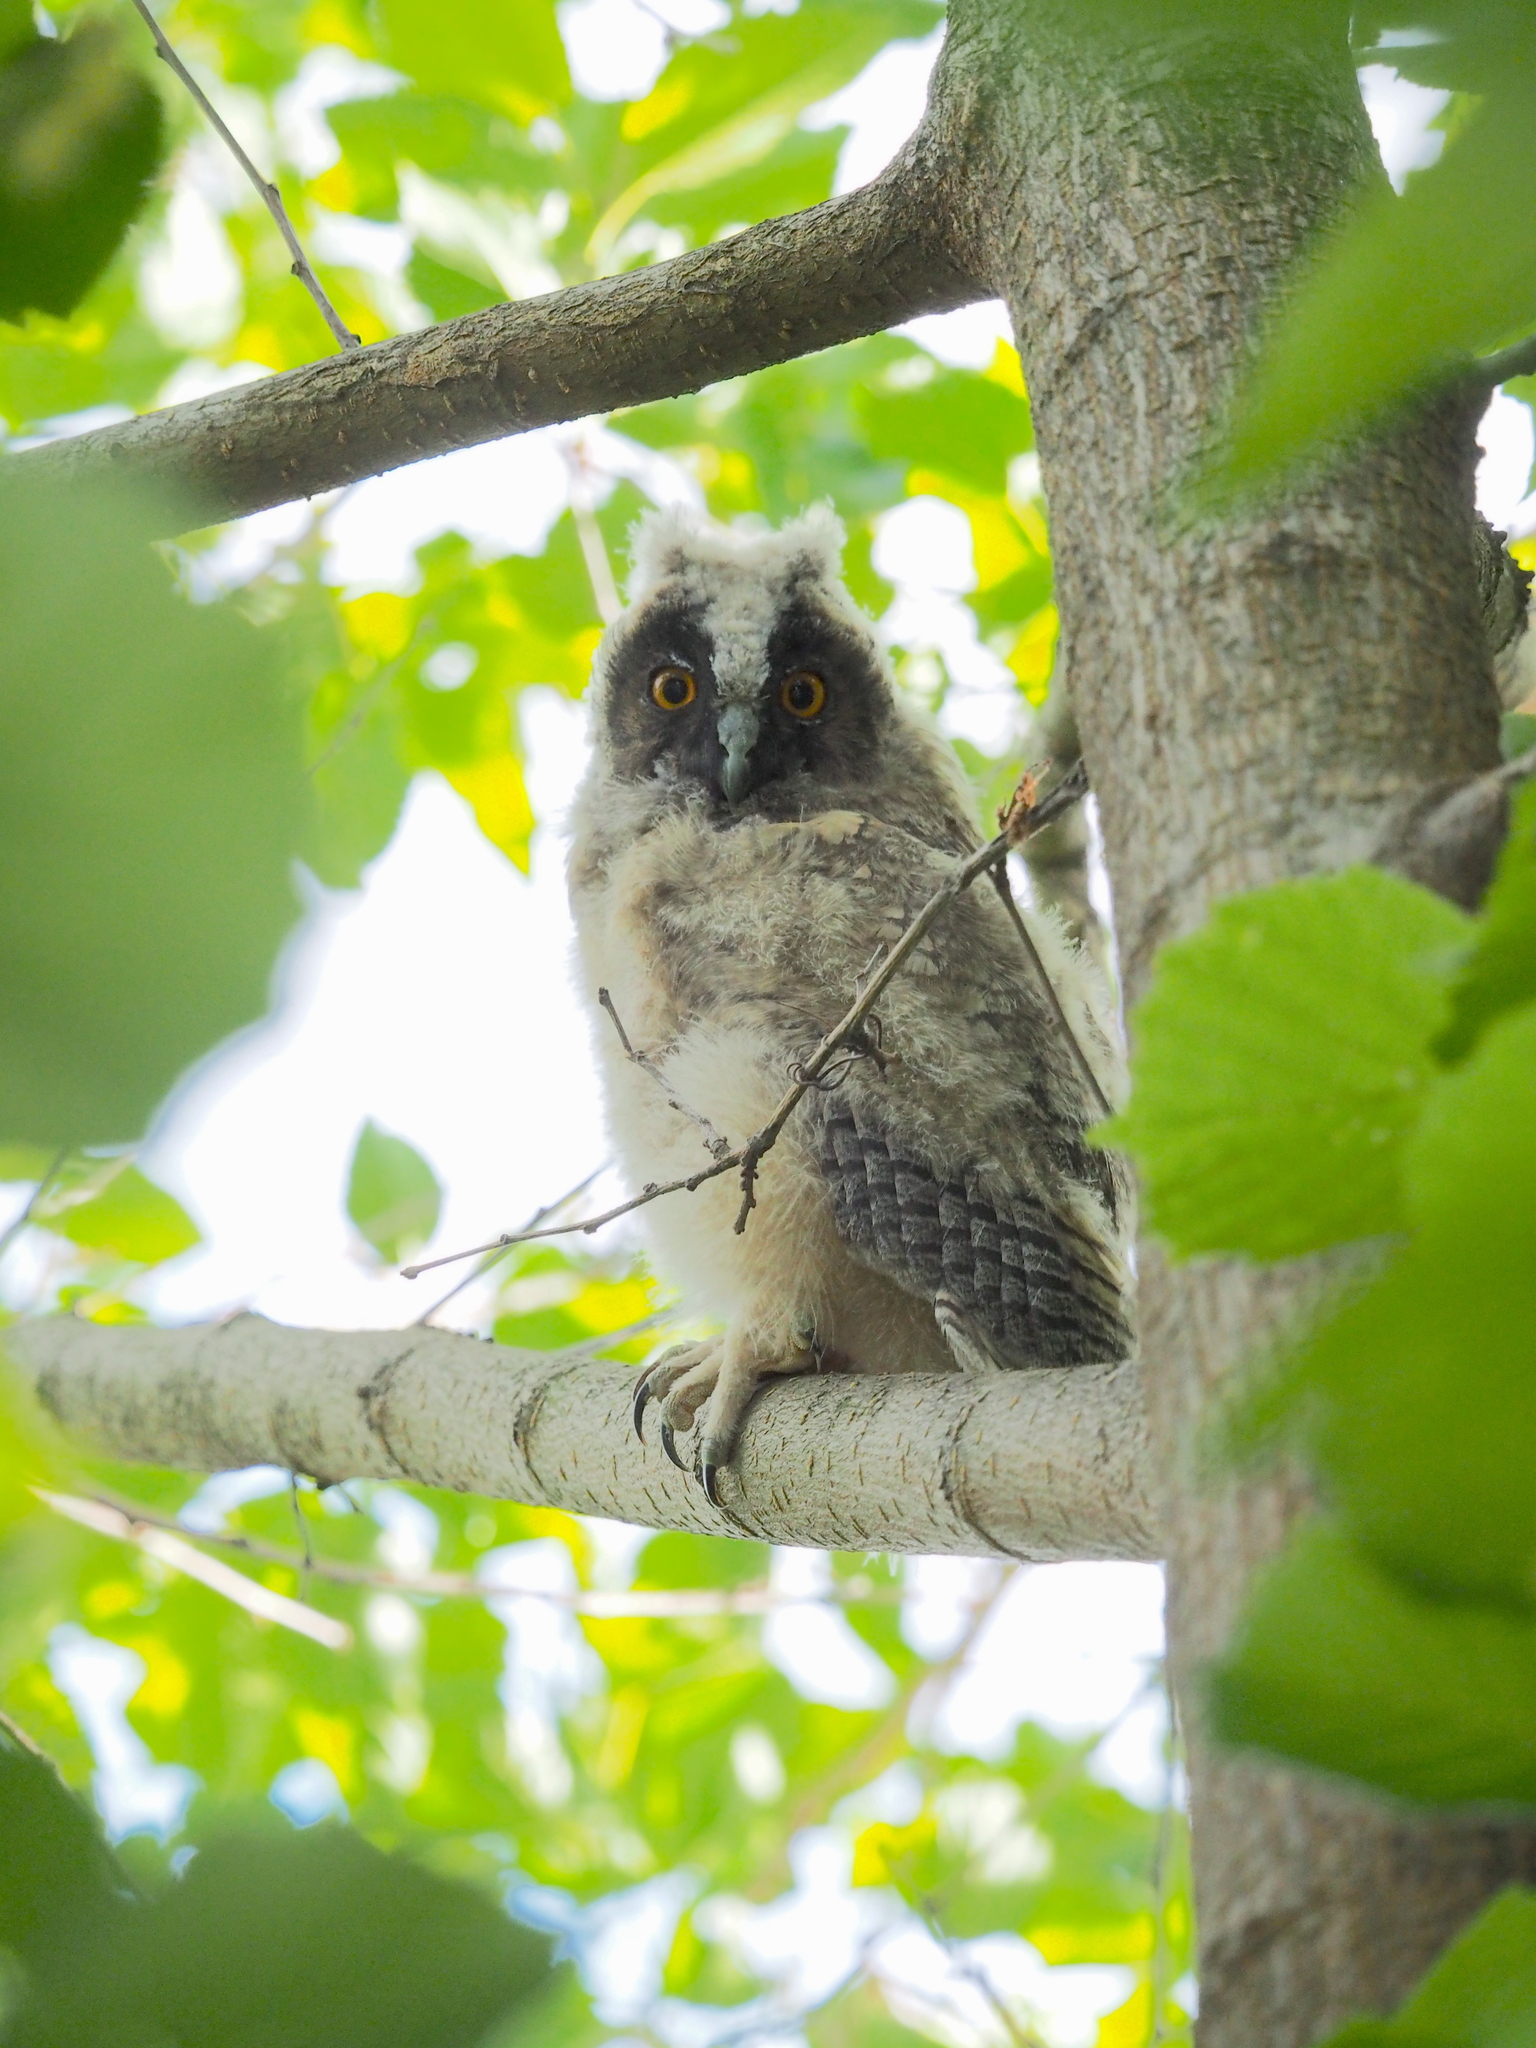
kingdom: Animalia
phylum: Chordata
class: Aves
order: Strigiformes
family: Strigidae
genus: Asio
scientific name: Asio otus
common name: Long-eared owl
